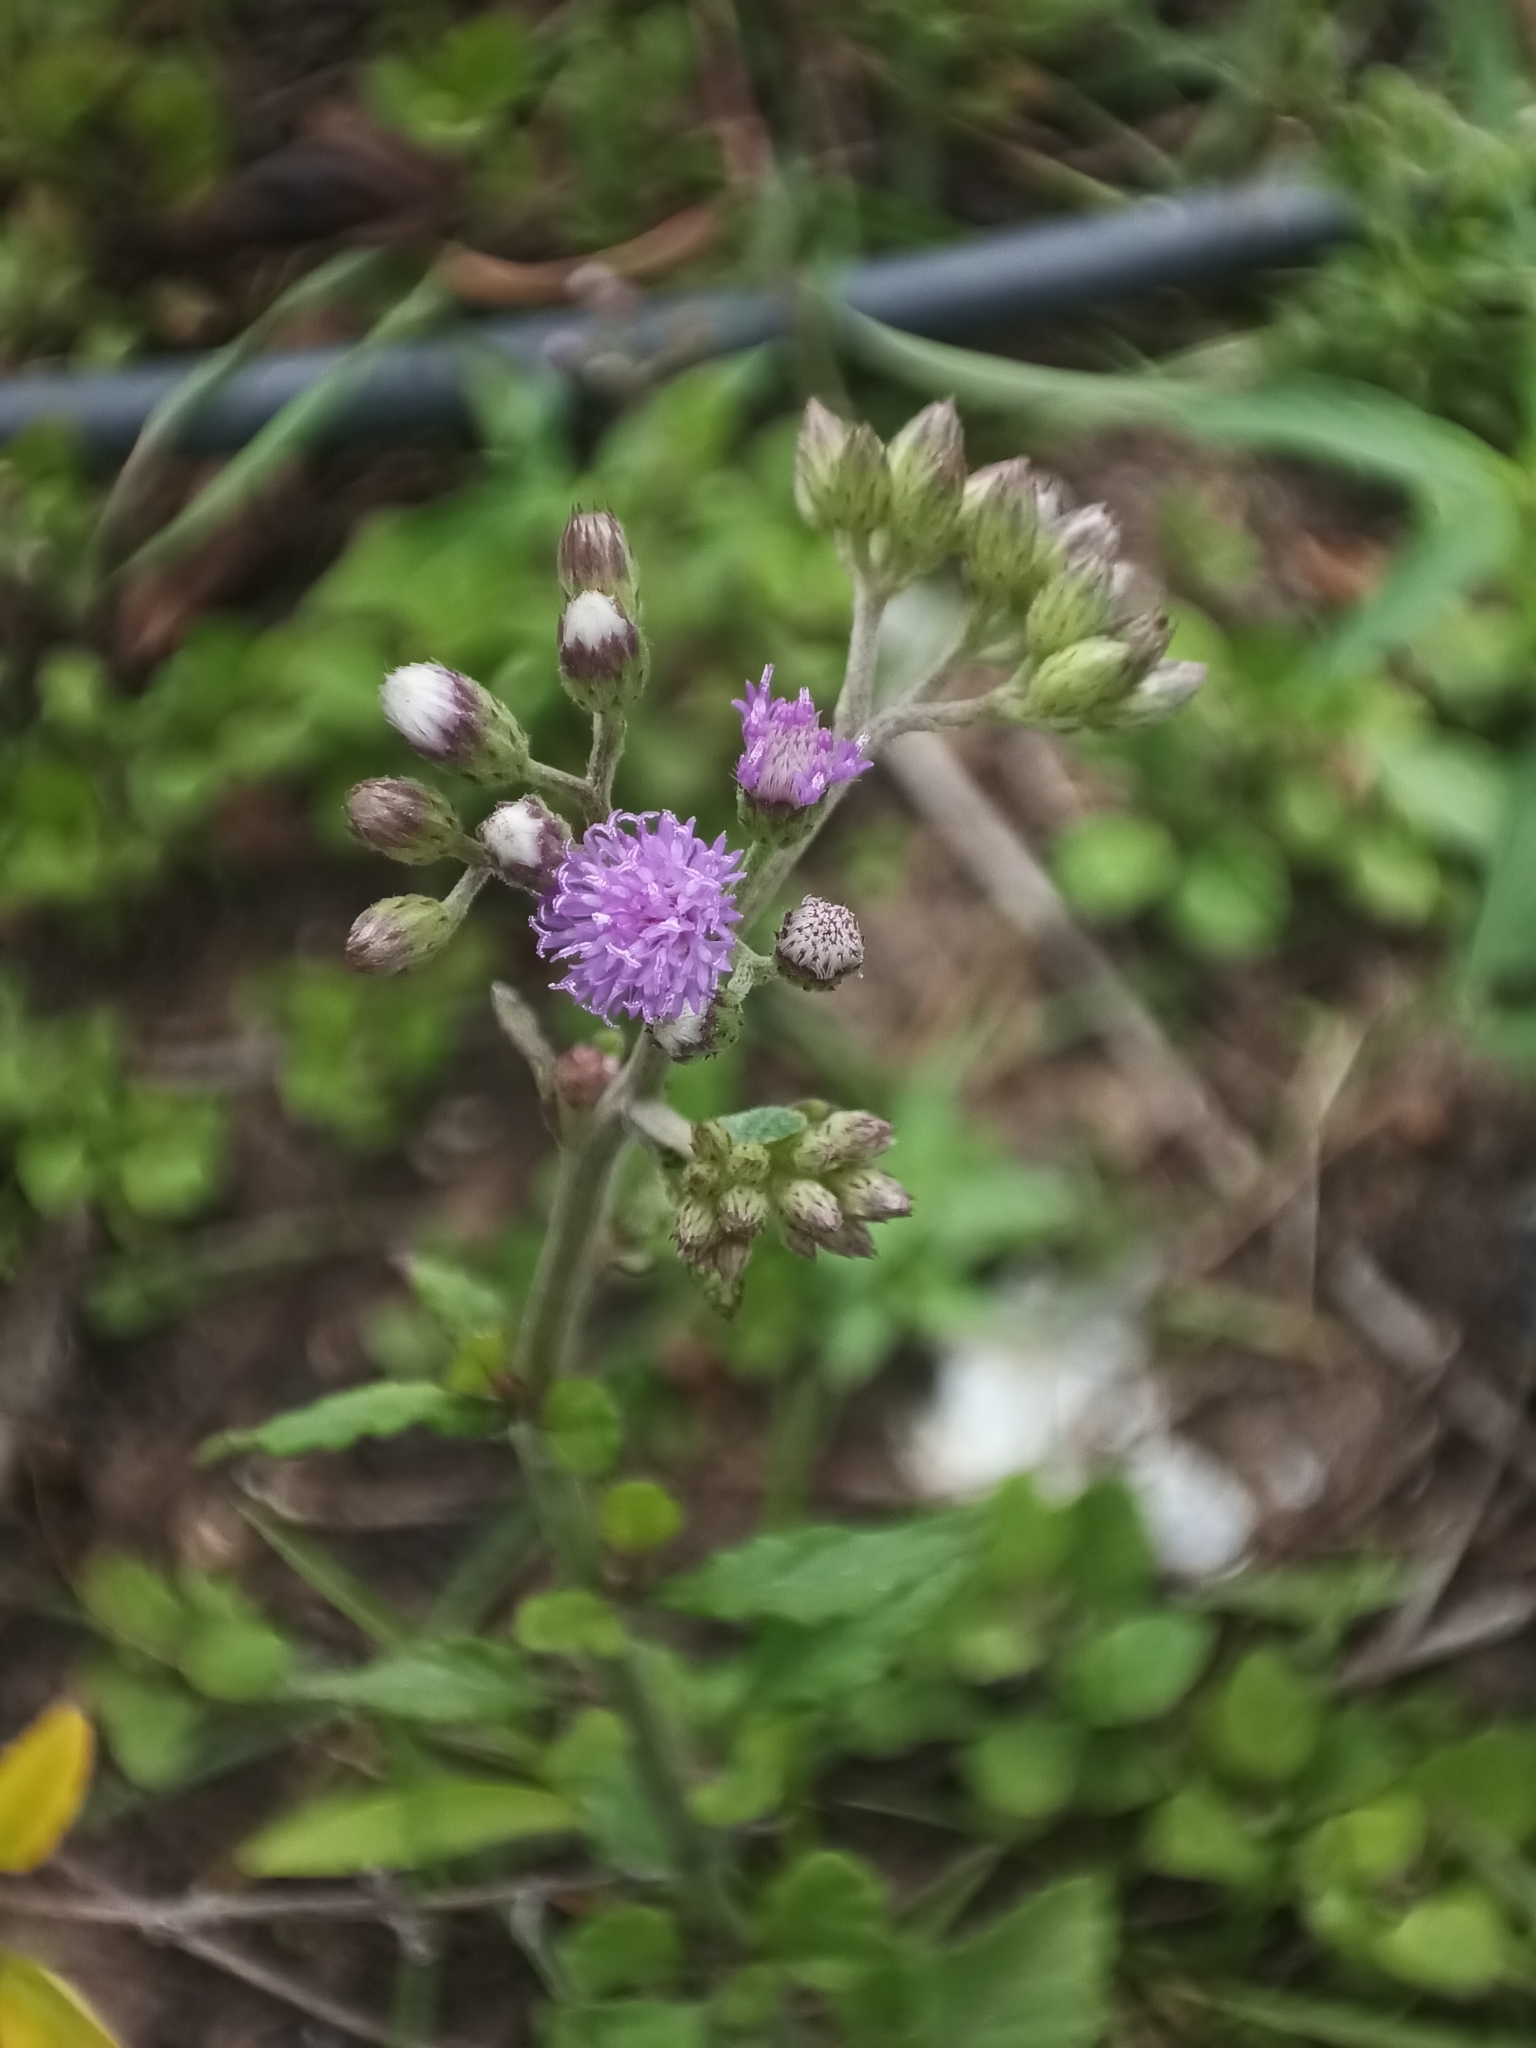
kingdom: Plantae
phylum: Tracheophyta
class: Magnoliopsida
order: Asterales
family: Asteraceae
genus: Cyanthillium
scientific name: Cyanthillium cinereum
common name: Little ironweed
